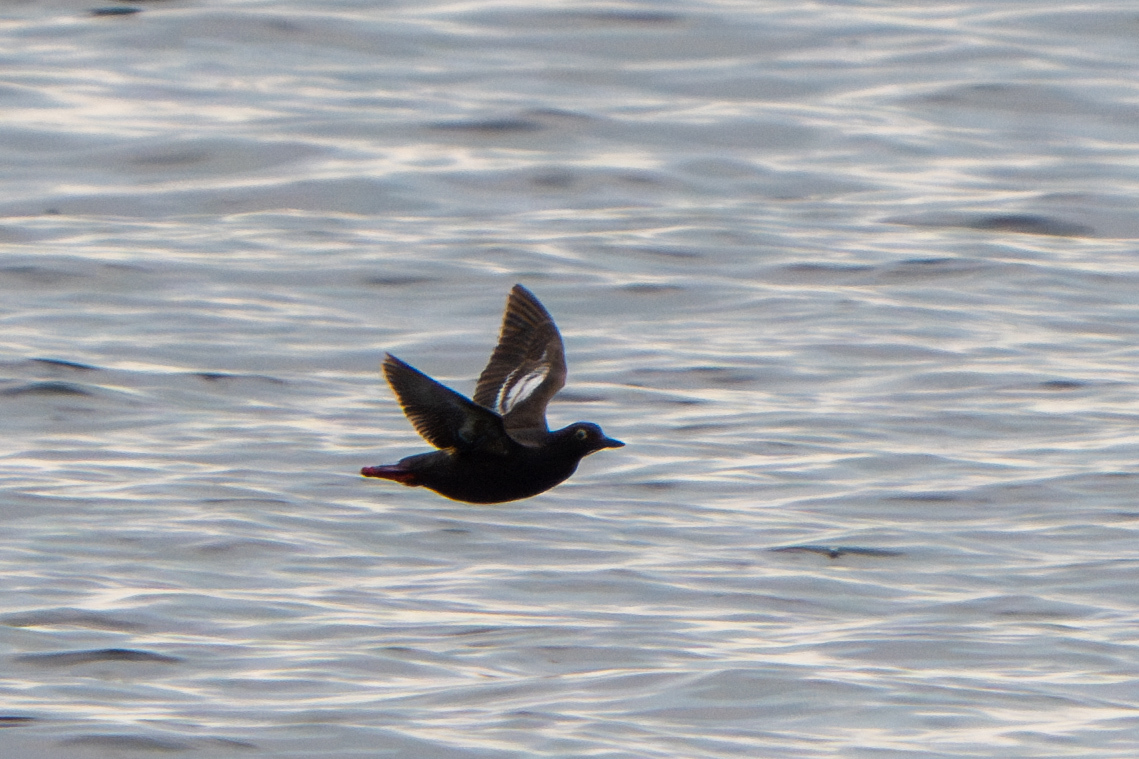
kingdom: Animalia
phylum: Chordata
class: Aves
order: Charadriiformes
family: Alcidae
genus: Cepphus
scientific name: Cepphus columba
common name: Pigeon guillemot
